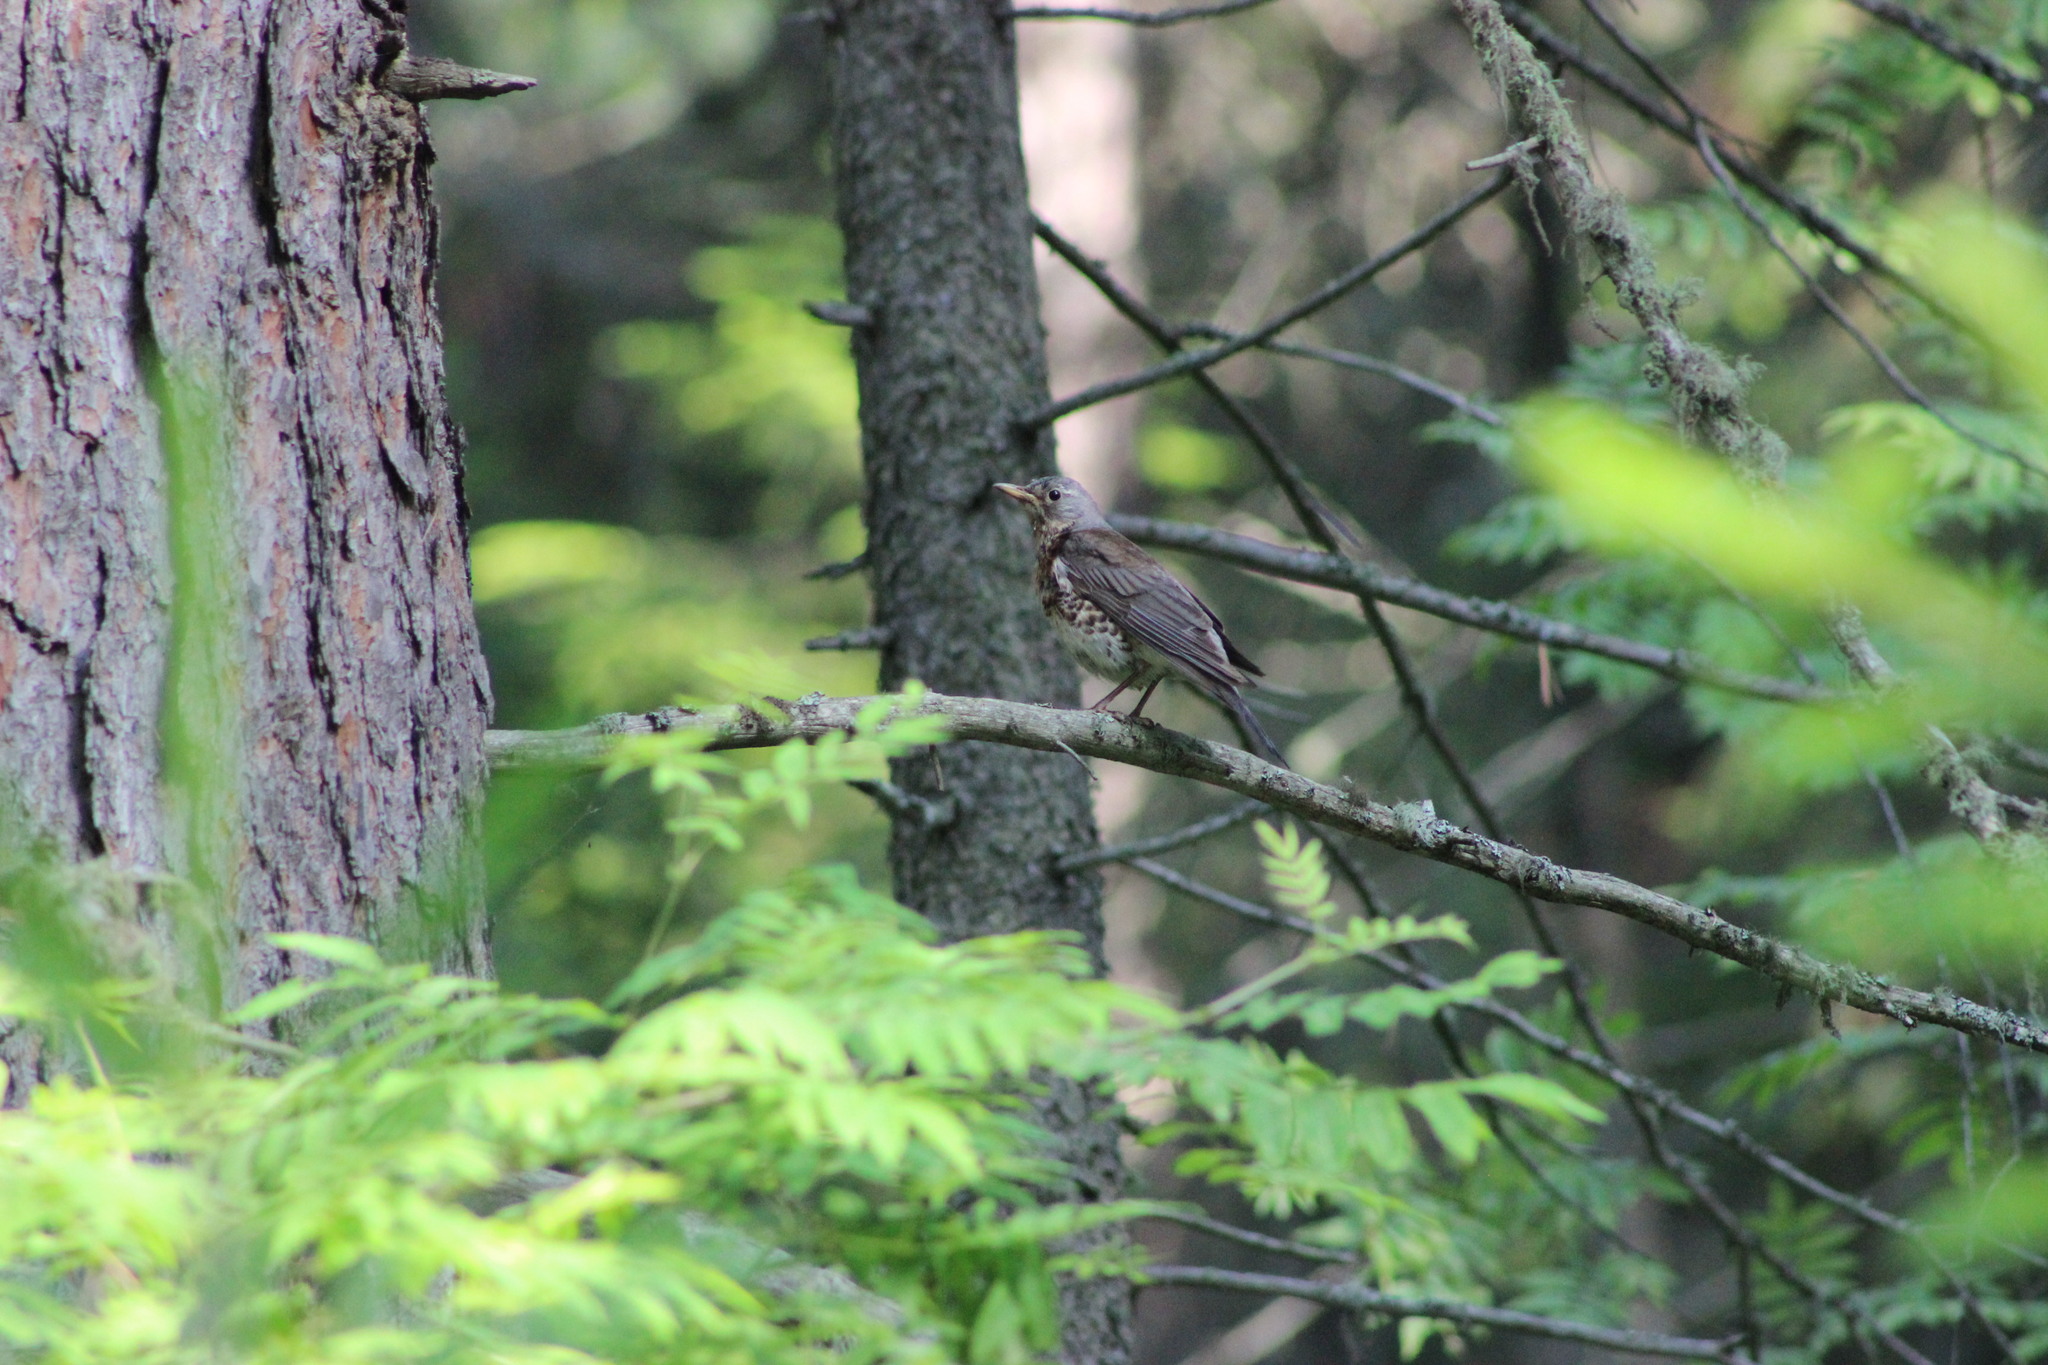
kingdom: Animalia
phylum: Chordata
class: Aves
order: Passeriformes
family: Turdidae
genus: Turdus
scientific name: Turdus pilaris
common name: Fieldfare
